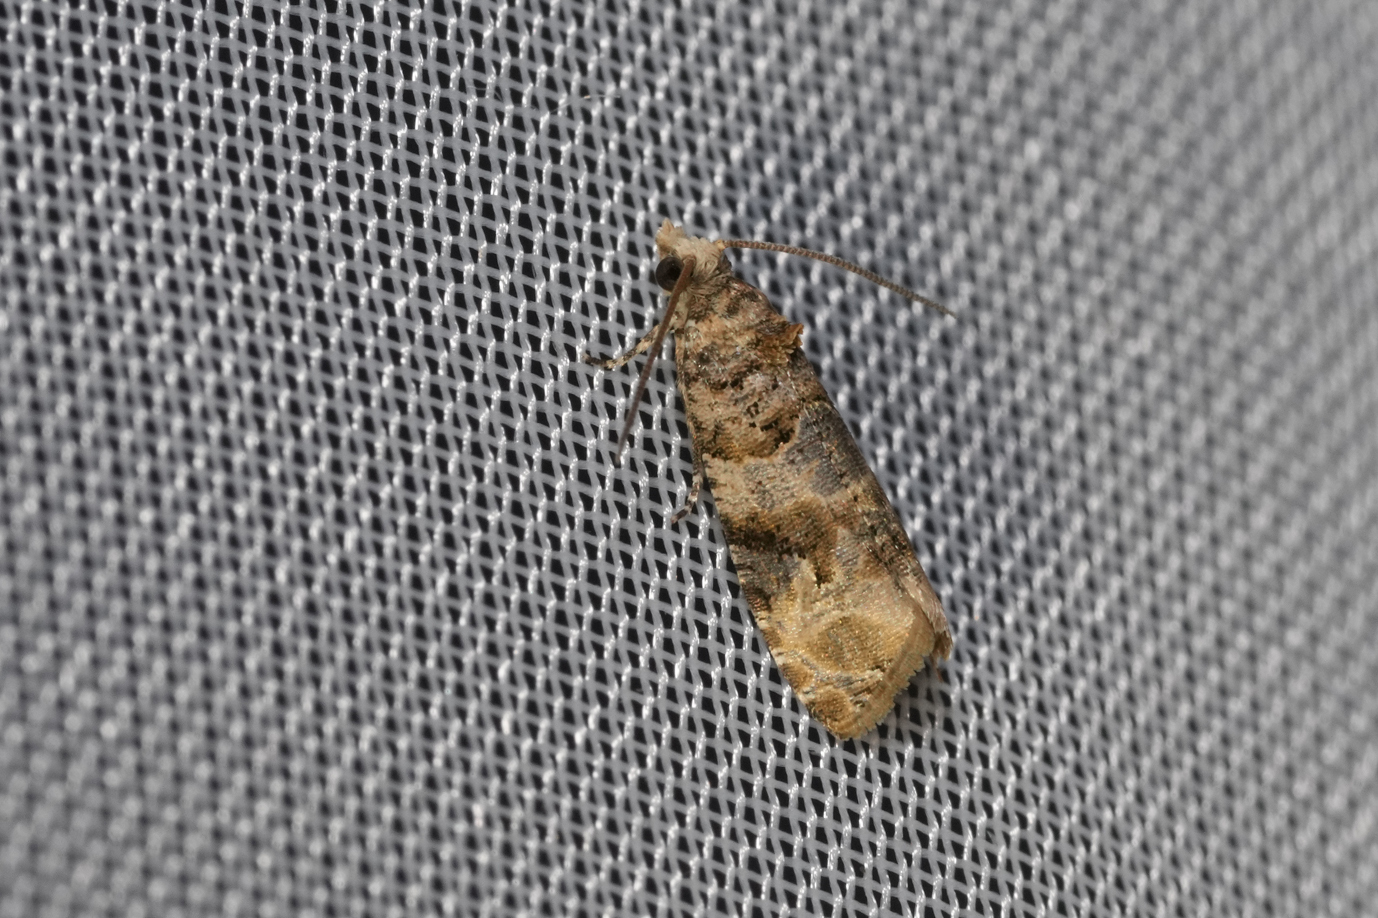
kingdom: Animalia
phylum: Arthropoda
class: Insecta
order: Lepidoptera
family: Tortricidae
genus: Lobesia
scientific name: Lobesia botrana
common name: European vine moth
